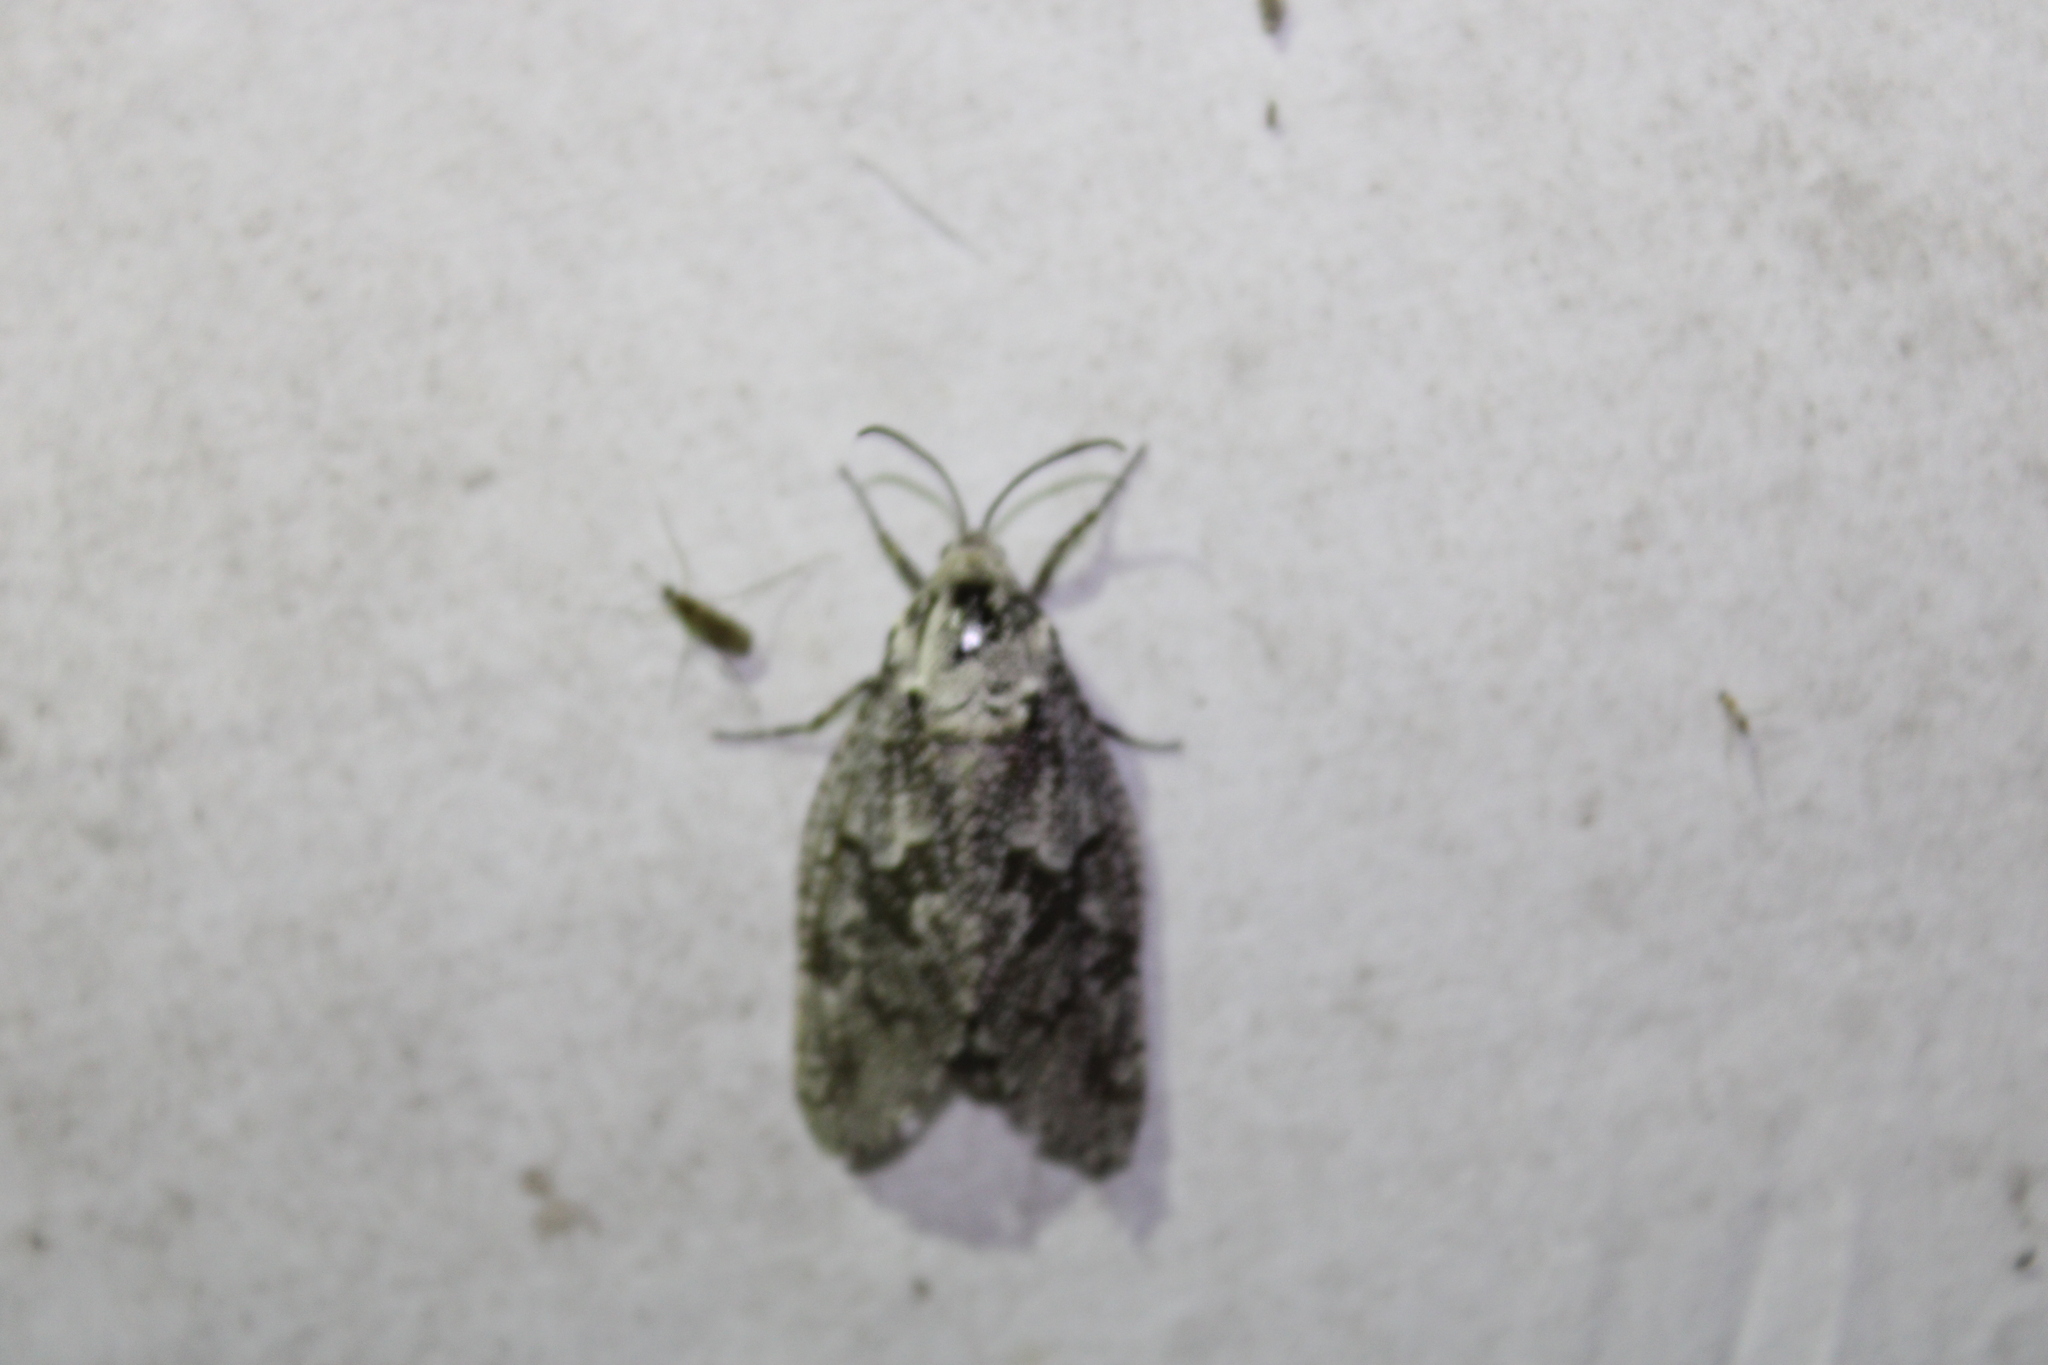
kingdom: Animalia
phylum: Arthropoda
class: Insecta
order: Lepidoptera
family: Cossidae
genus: Prionoxystus
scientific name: Prionoxystus robiniae
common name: Carpenterworm
